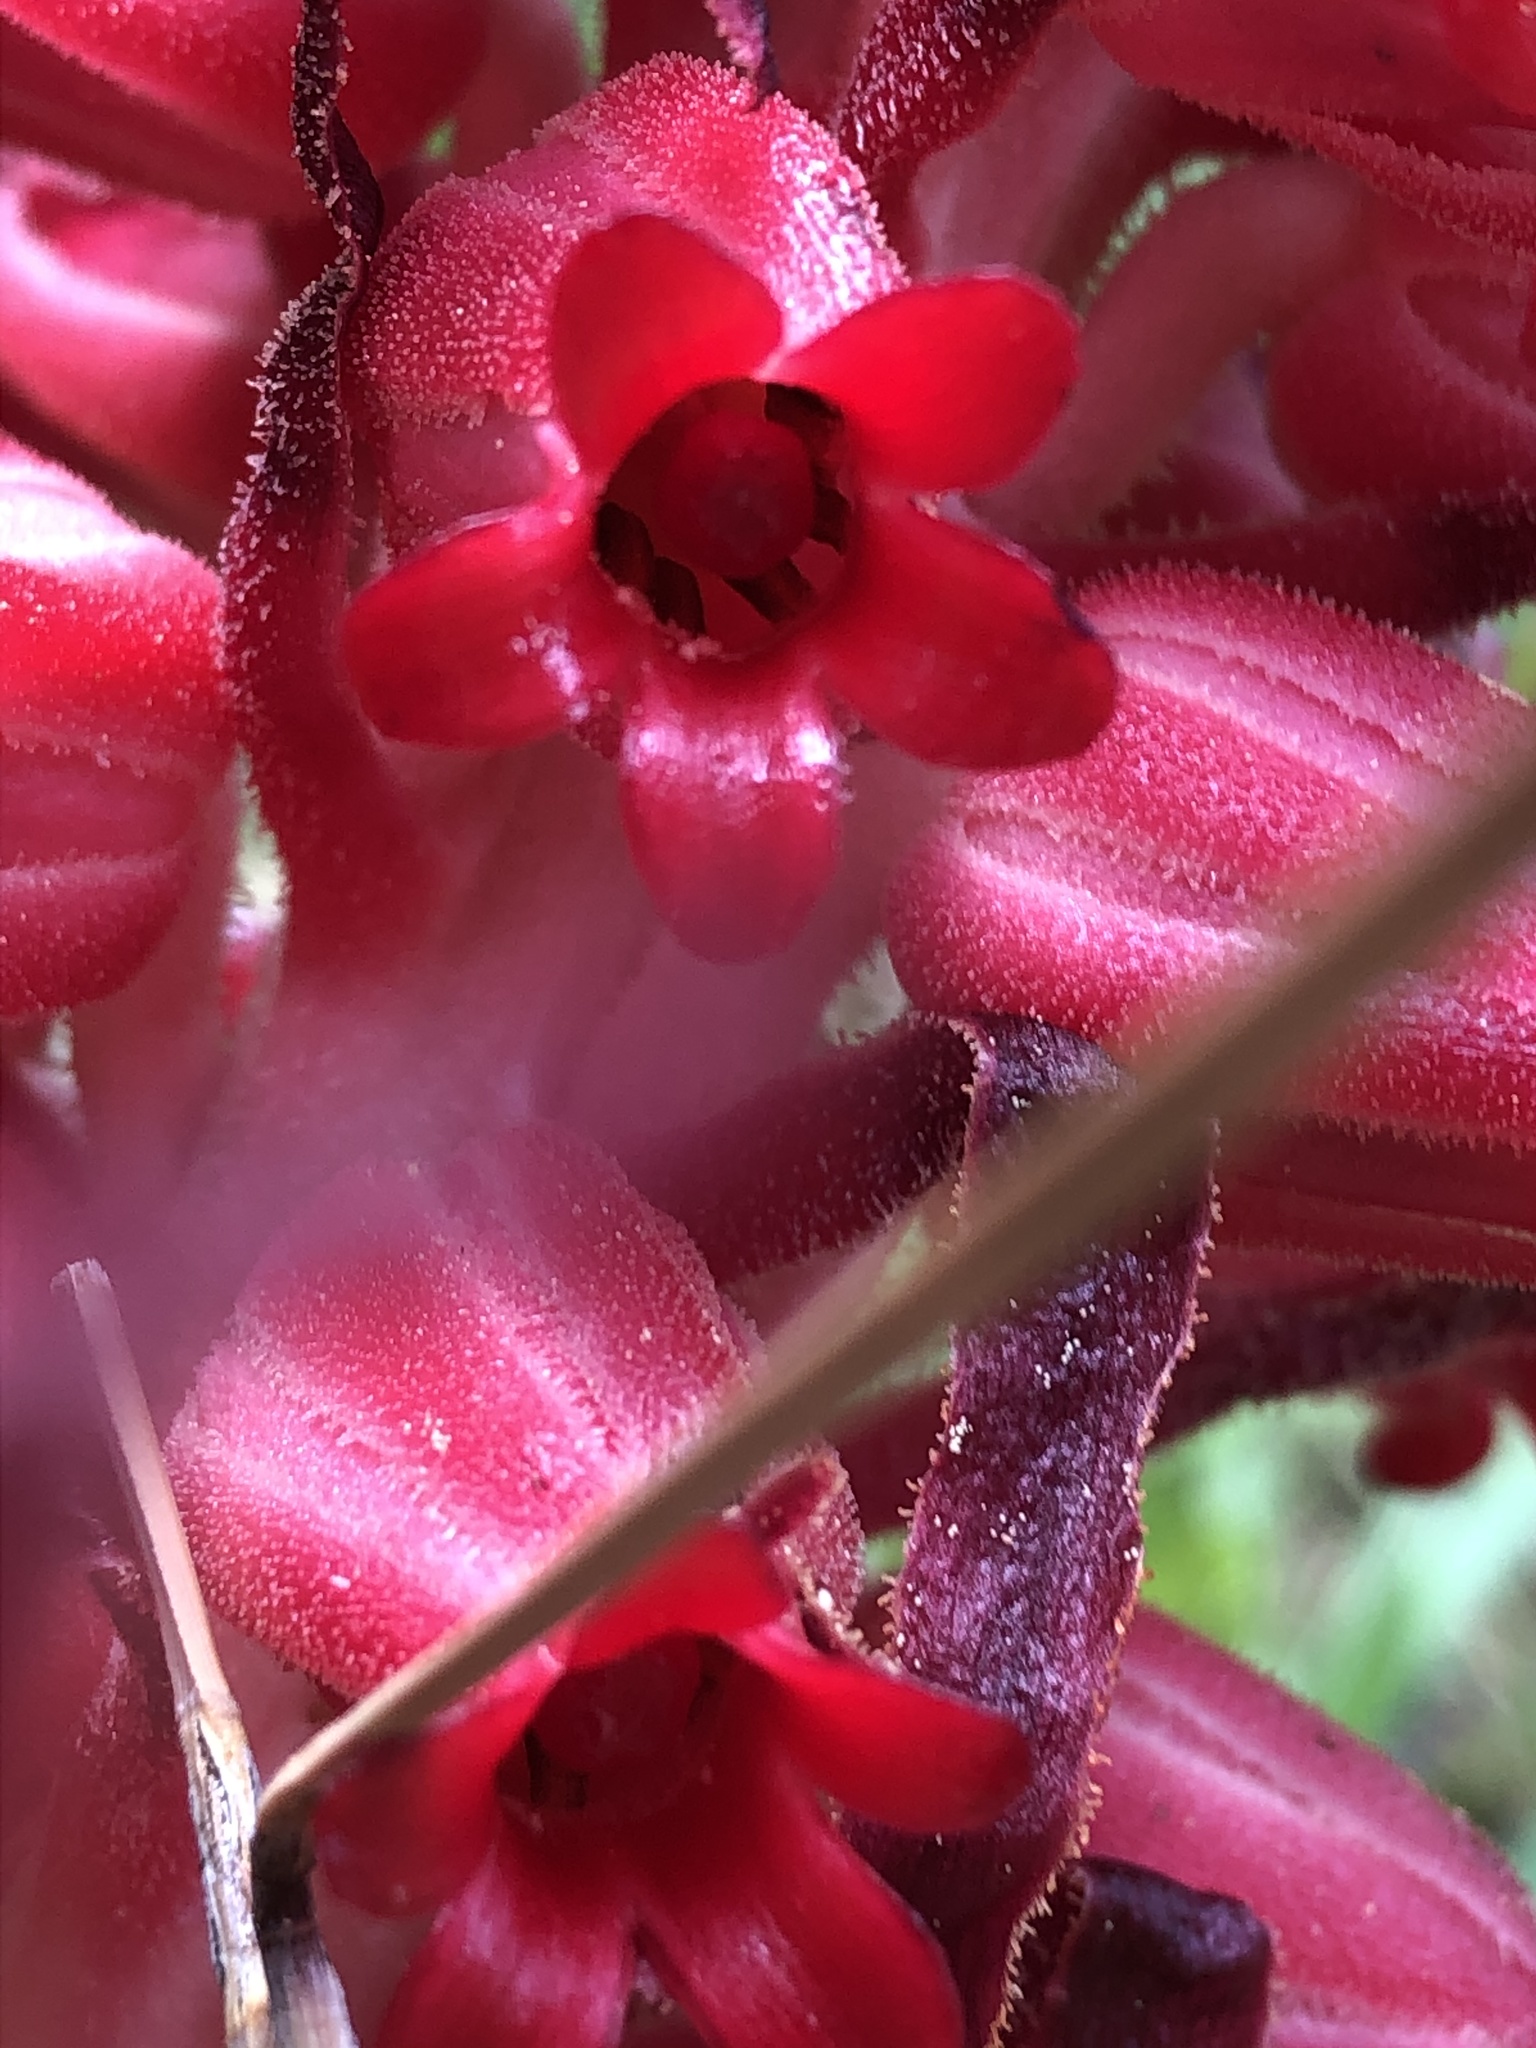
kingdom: Plantae
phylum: Tracheophyta
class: Magnoliopsida
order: Ericales
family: Ericaceae
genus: Sarcodes
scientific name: Sarcodes sanguinea
